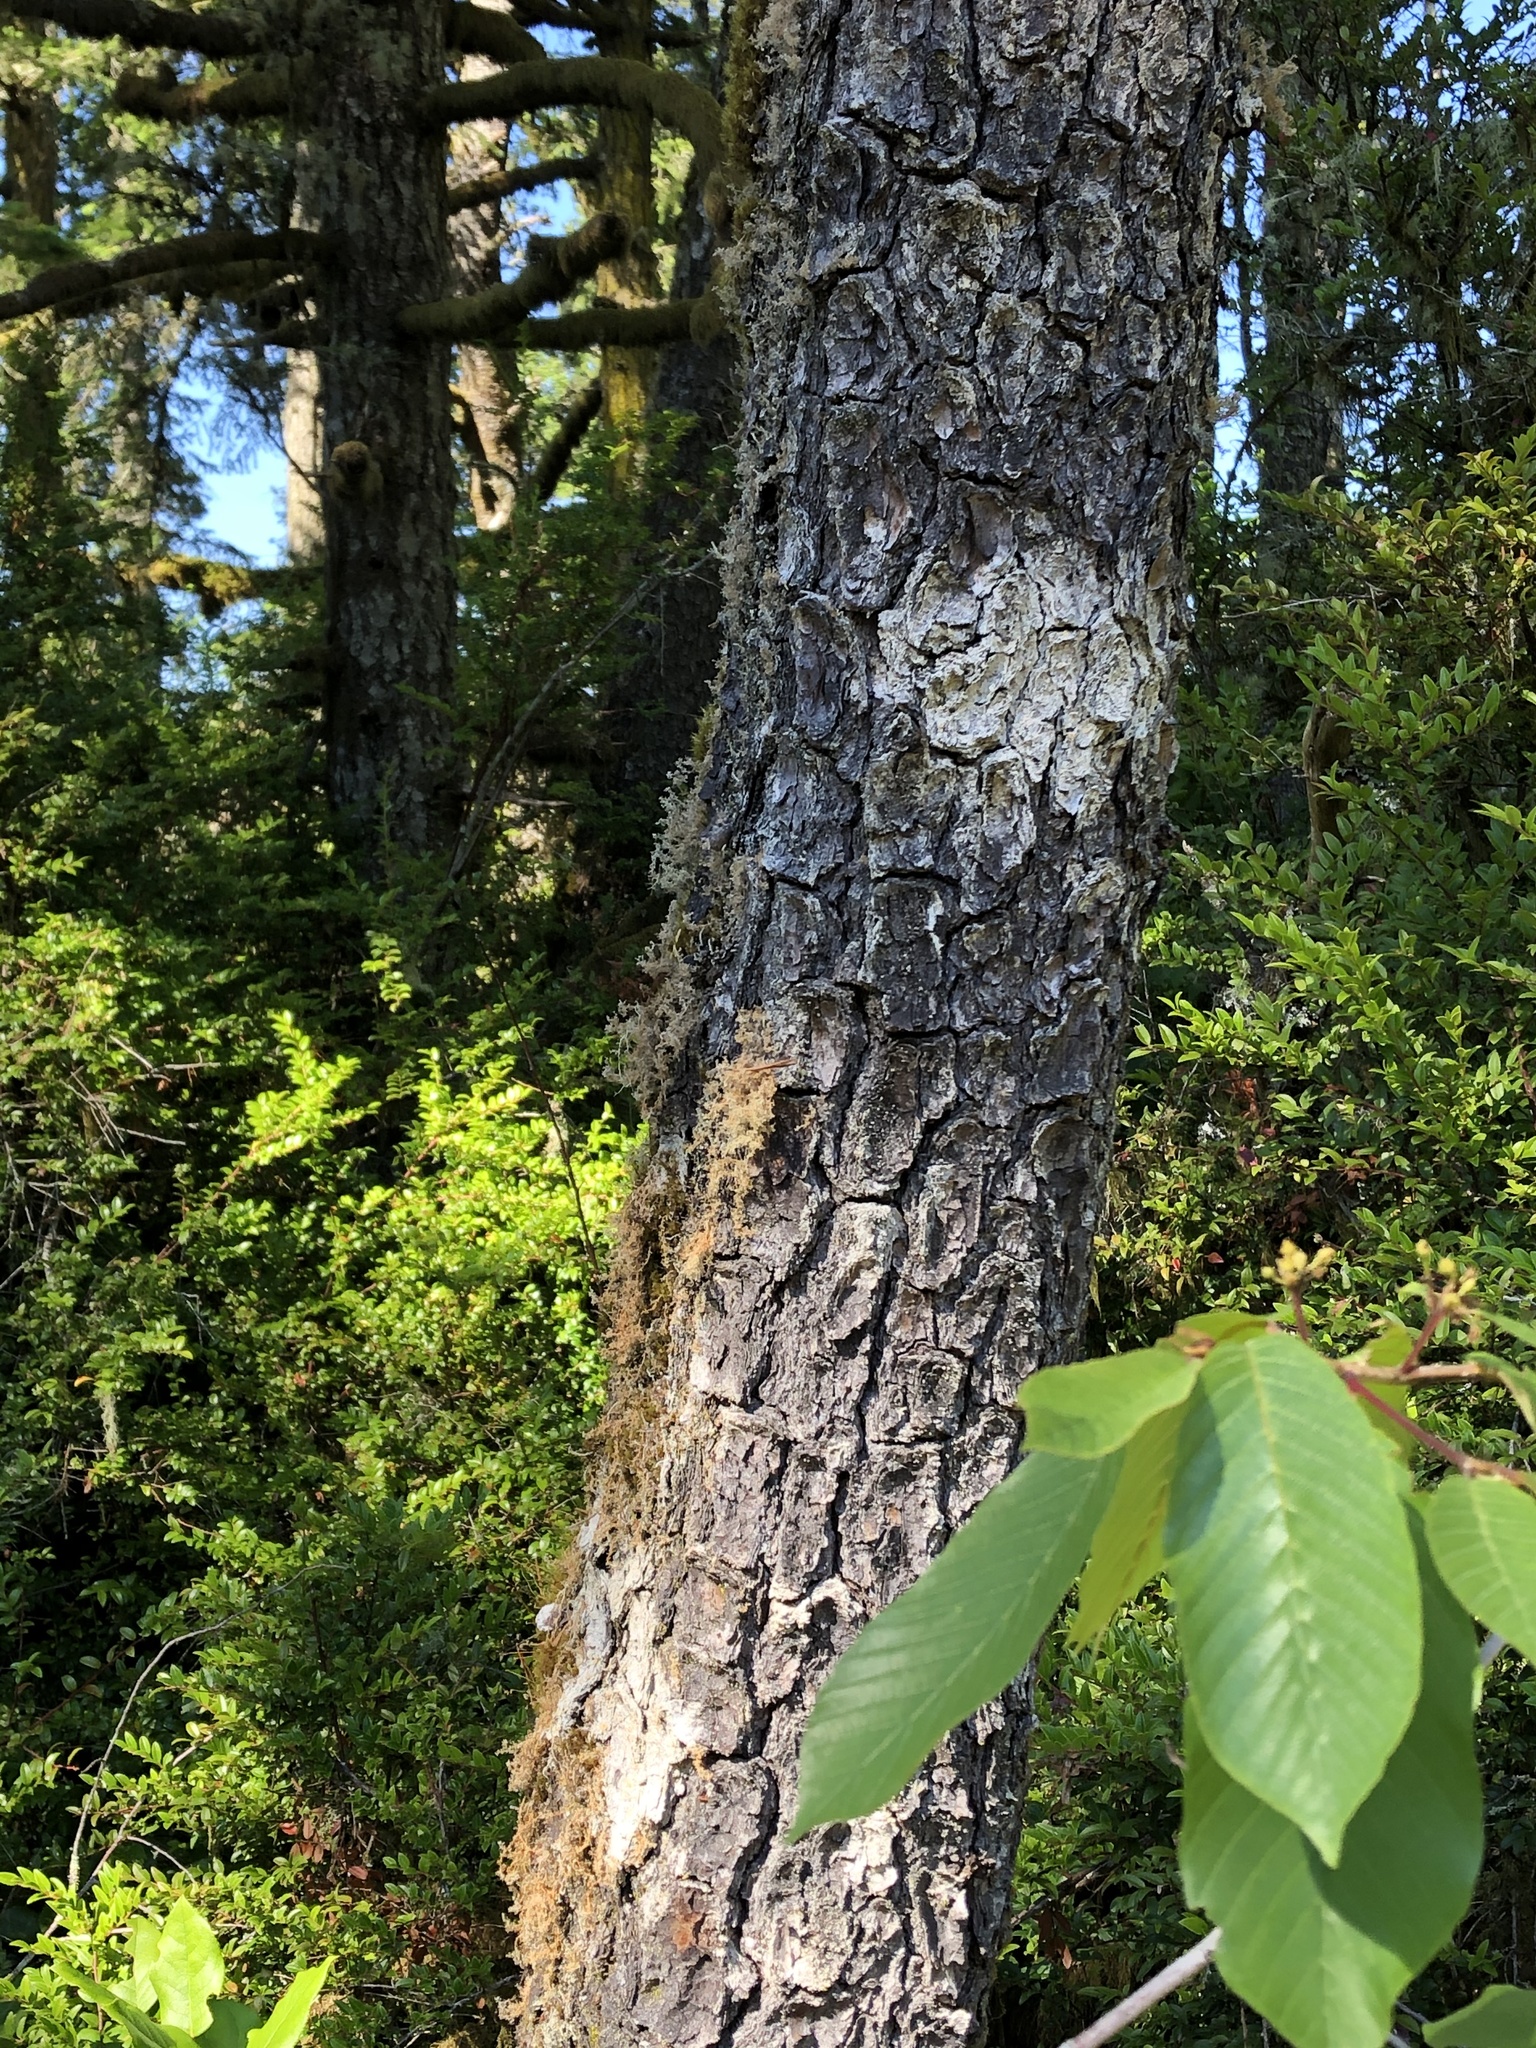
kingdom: Plantae
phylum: Tracheophyta
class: Magnoliopsida
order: Rosales
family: Rhamnaceae
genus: Frangula
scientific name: Frangula purshiana
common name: Cascara buckthorn
